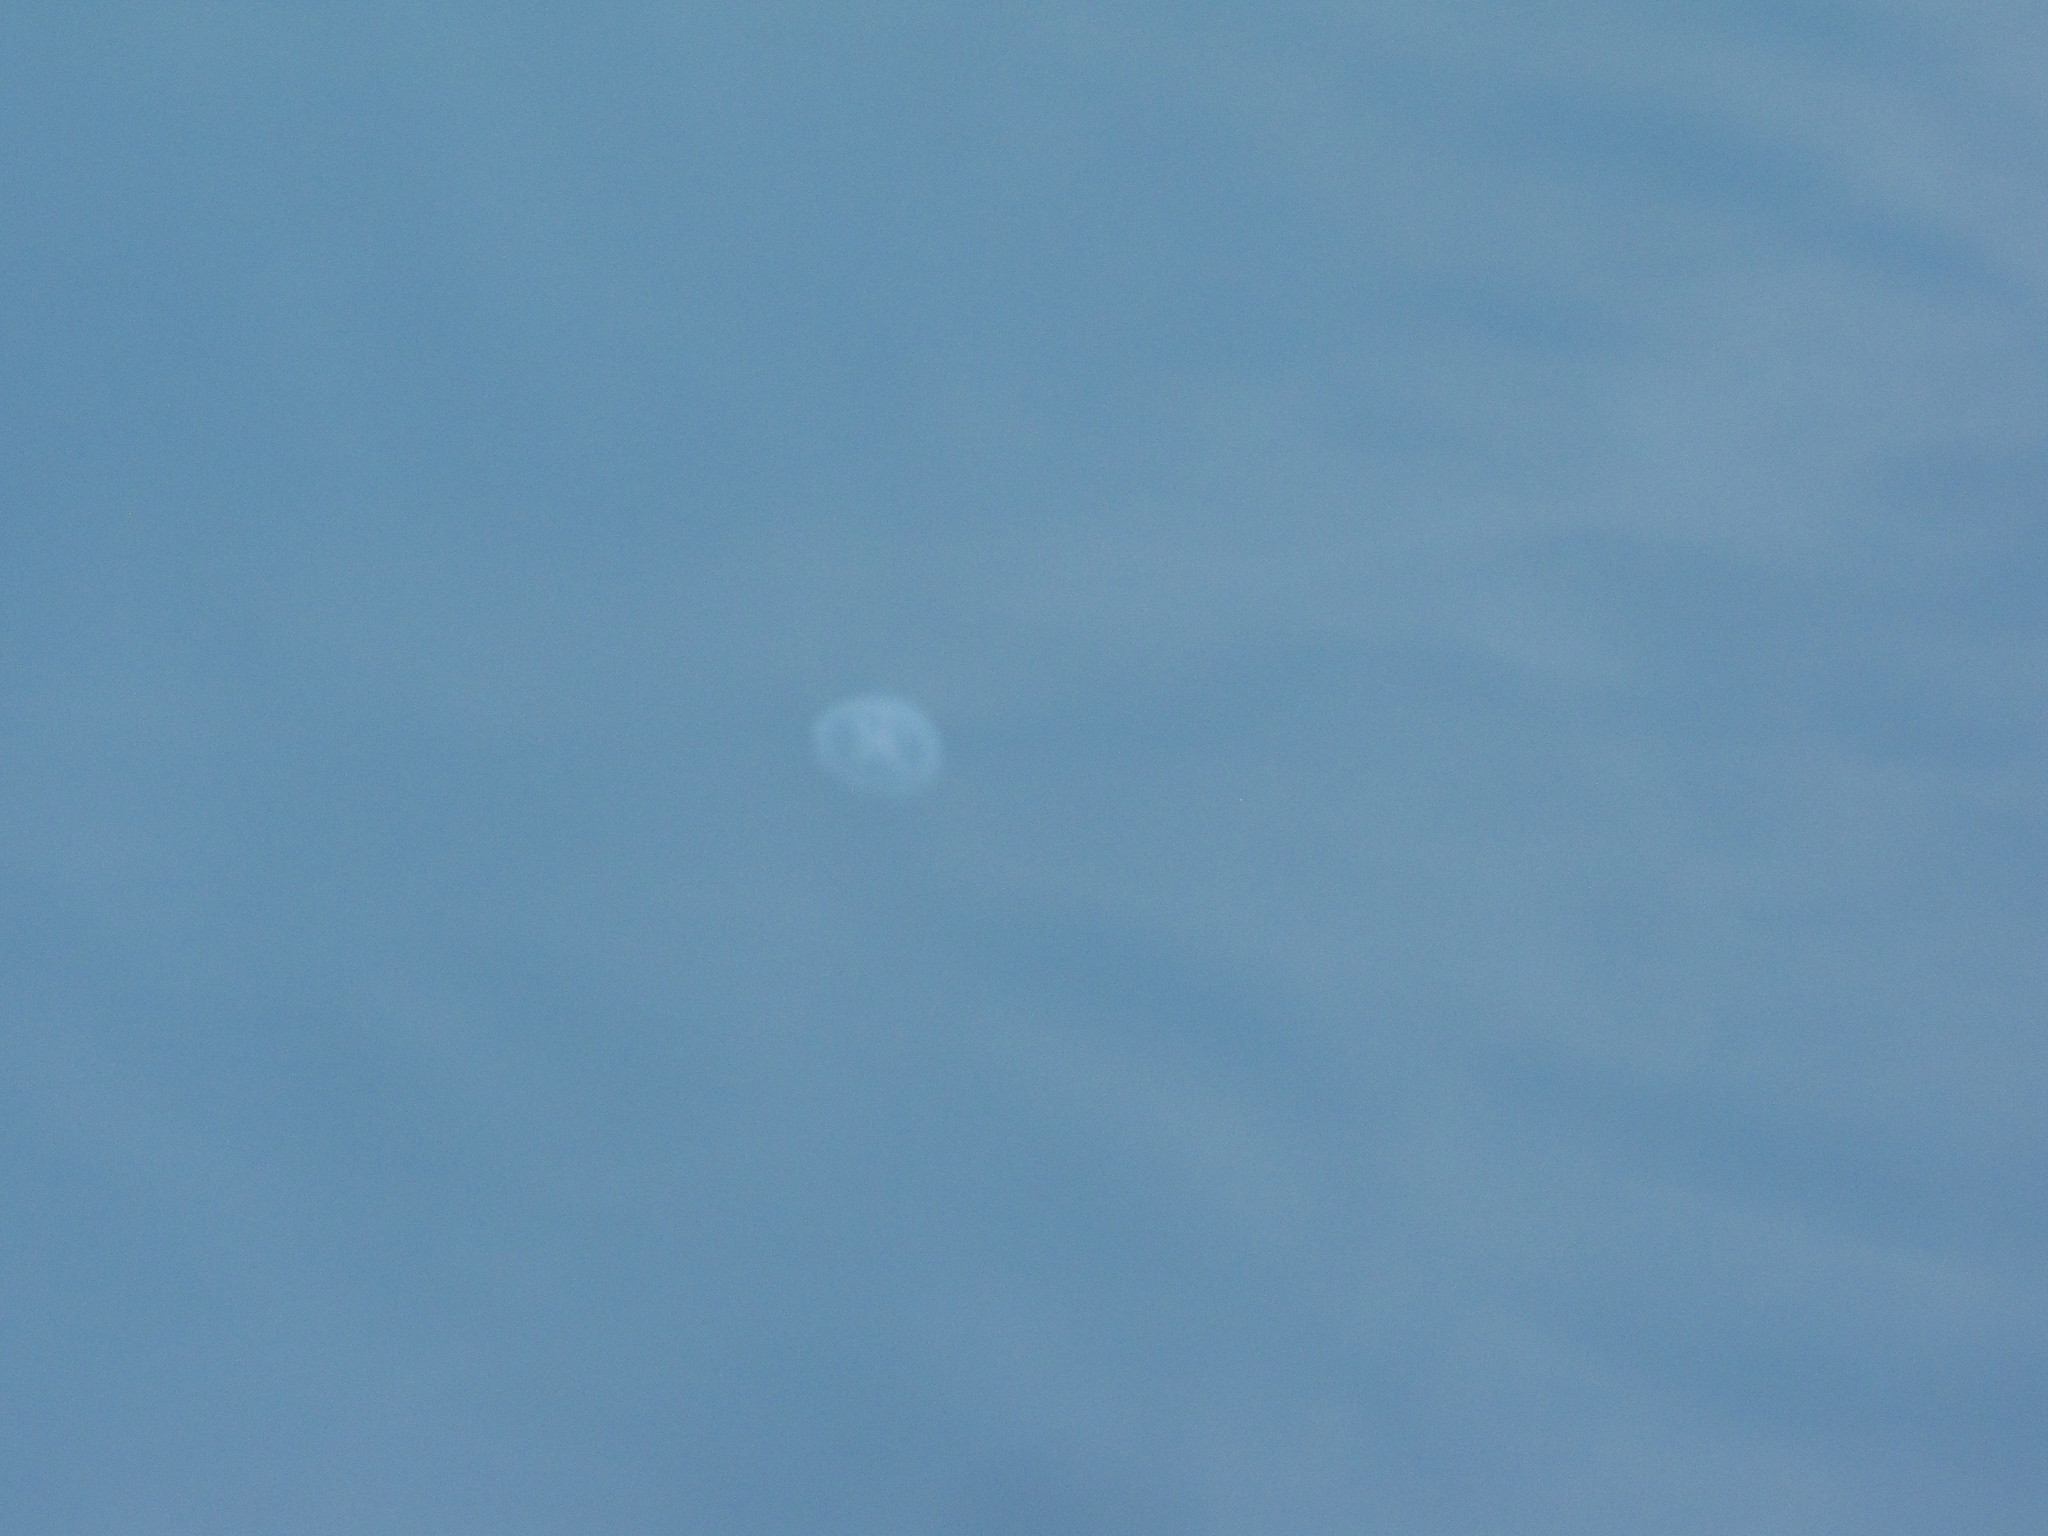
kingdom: Animalia
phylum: Cnidaria
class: Scyphozoa
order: Semaeostomeae
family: Ulmaridae
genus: Aurelia
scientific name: Aurelia labiata
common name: Pacific moon jelly
